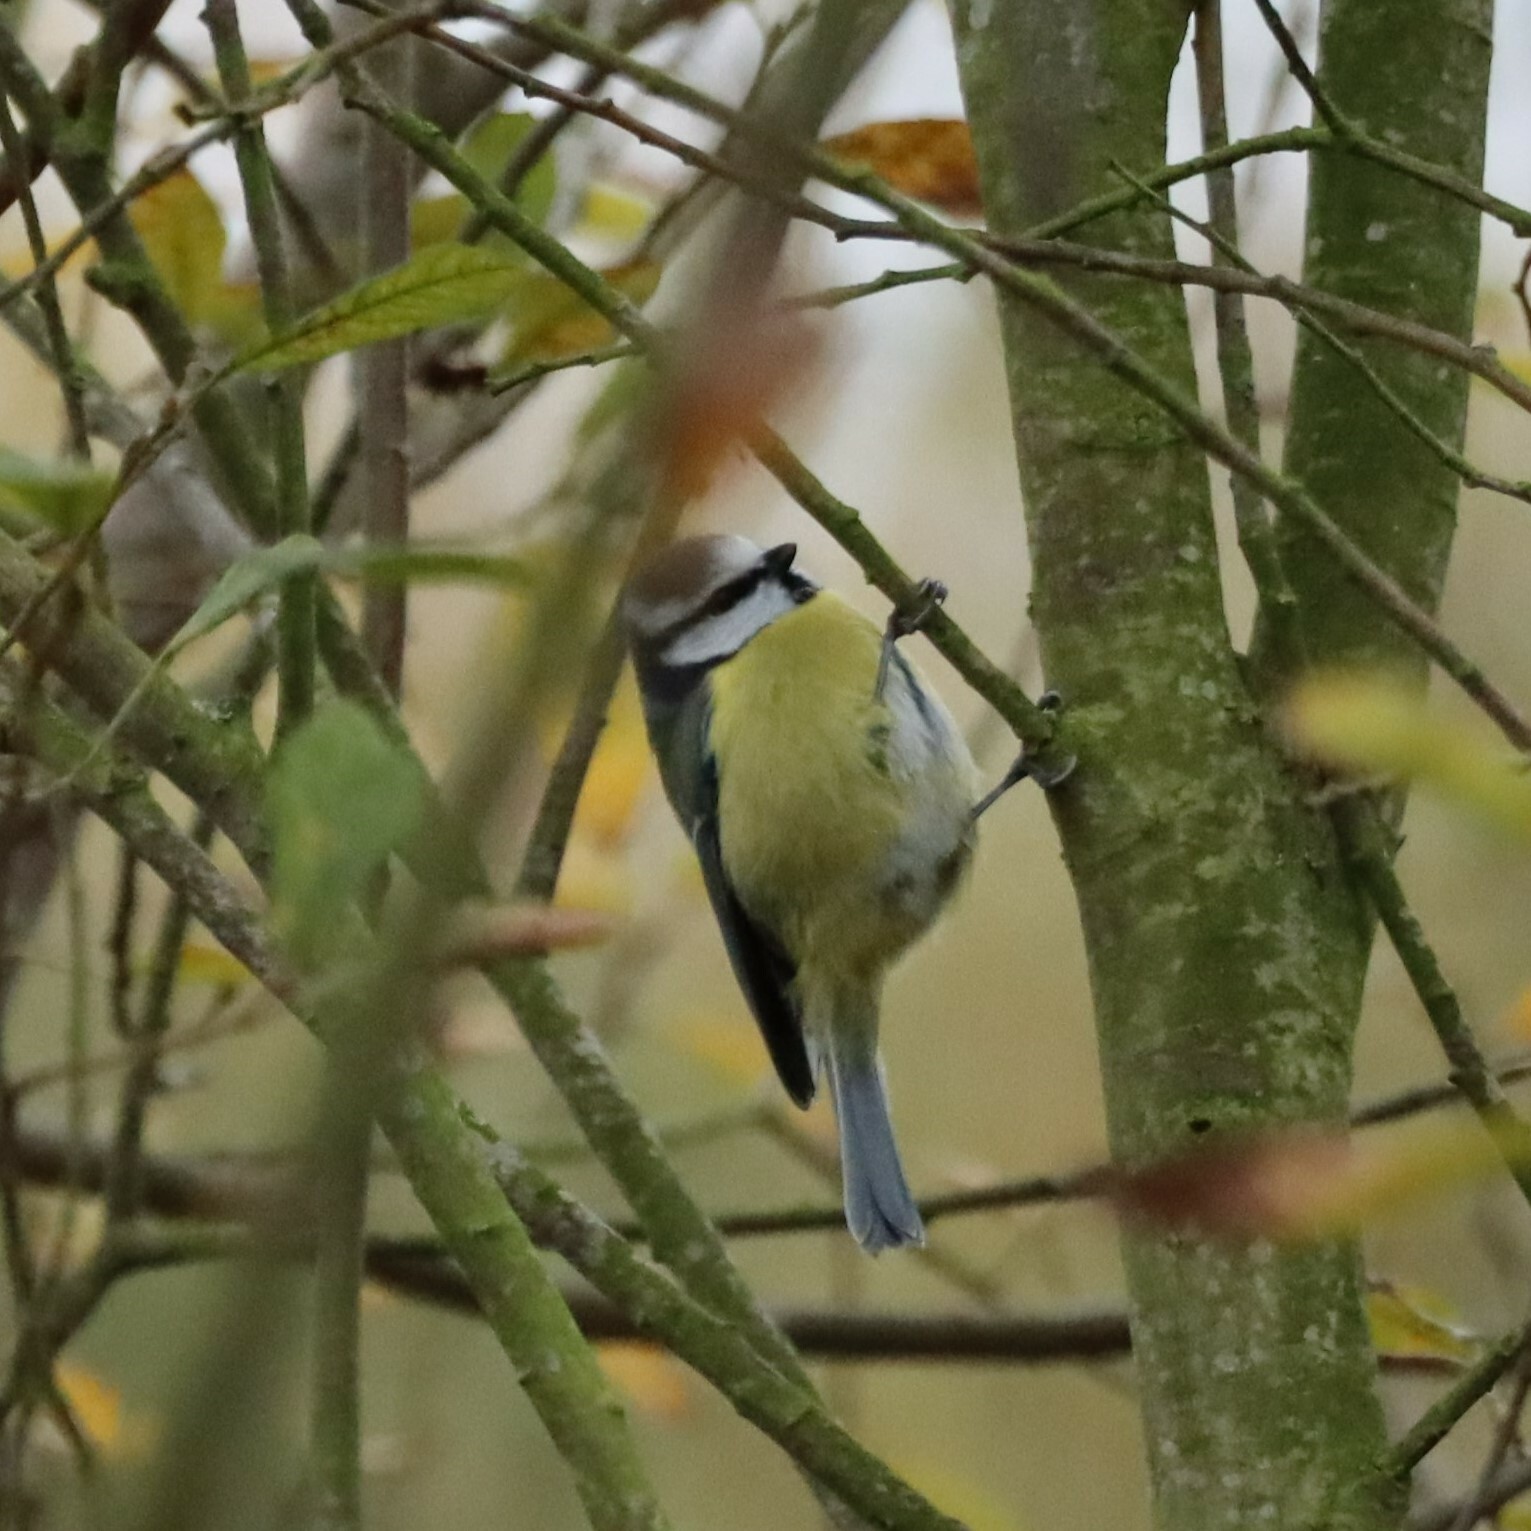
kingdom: Animalia
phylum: Chordata
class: Aves
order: Passeriformes
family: Paridae
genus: Cyanistes
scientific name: Cyanistes caeruleus
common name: Eurasian blue tit
